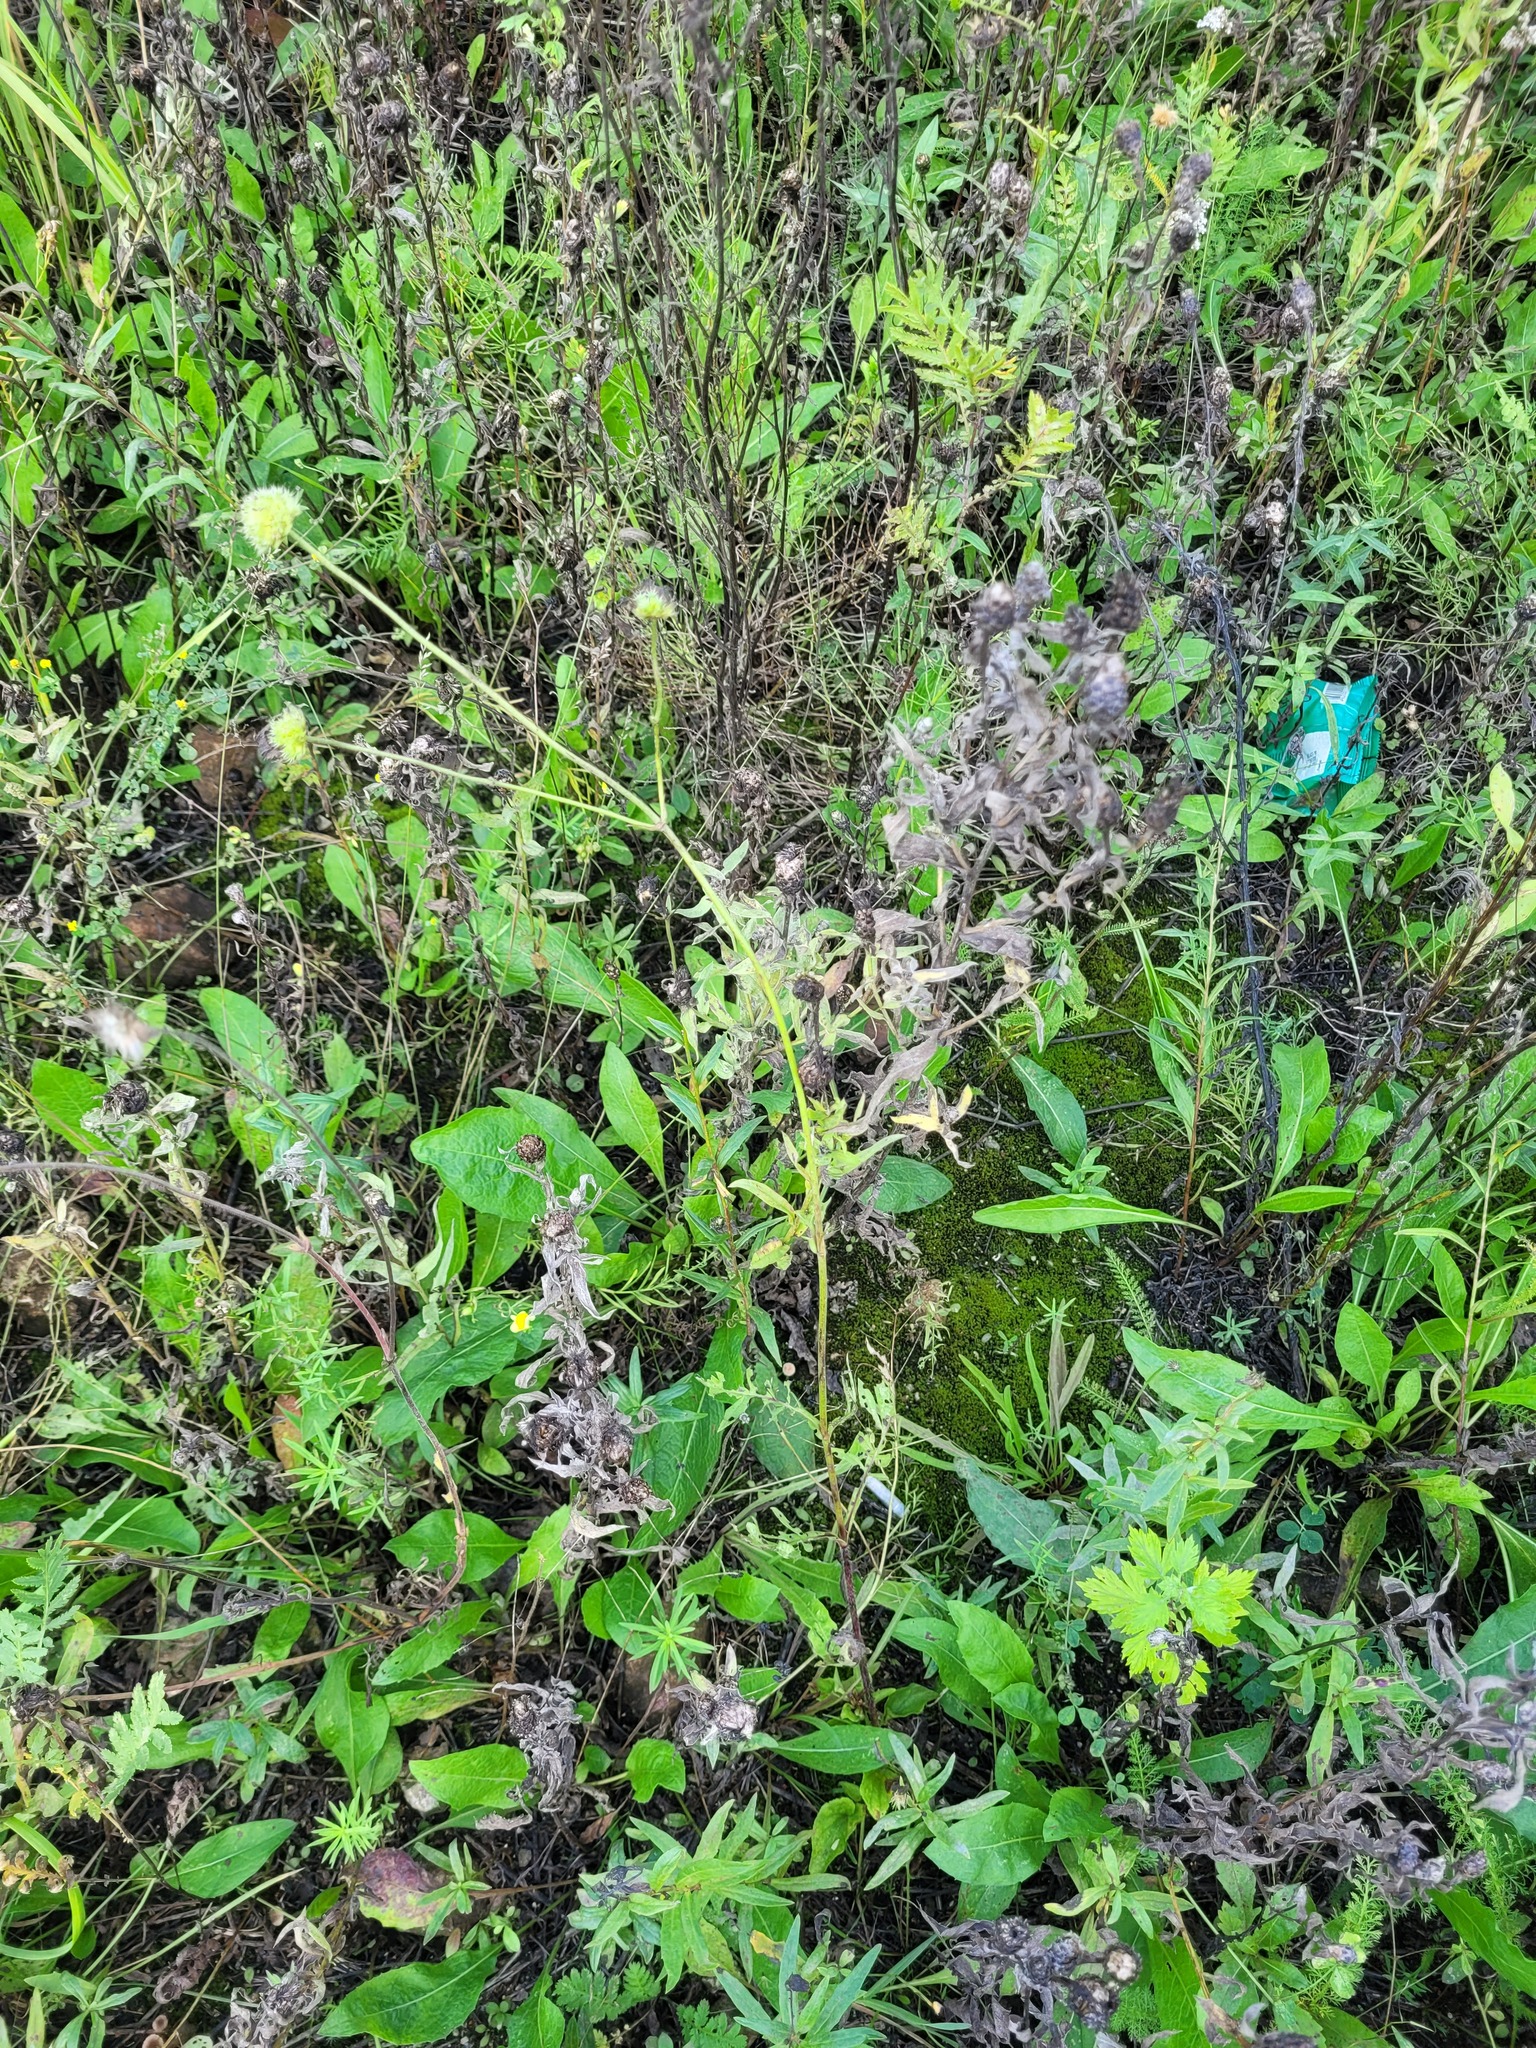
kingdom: Plantae
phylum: Tracheophyta
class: Magnoliopsida
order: Dipsacales
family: Caprifoliaceae
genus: Knautia
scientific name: Knautia arvensis
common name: Field scabiosa
